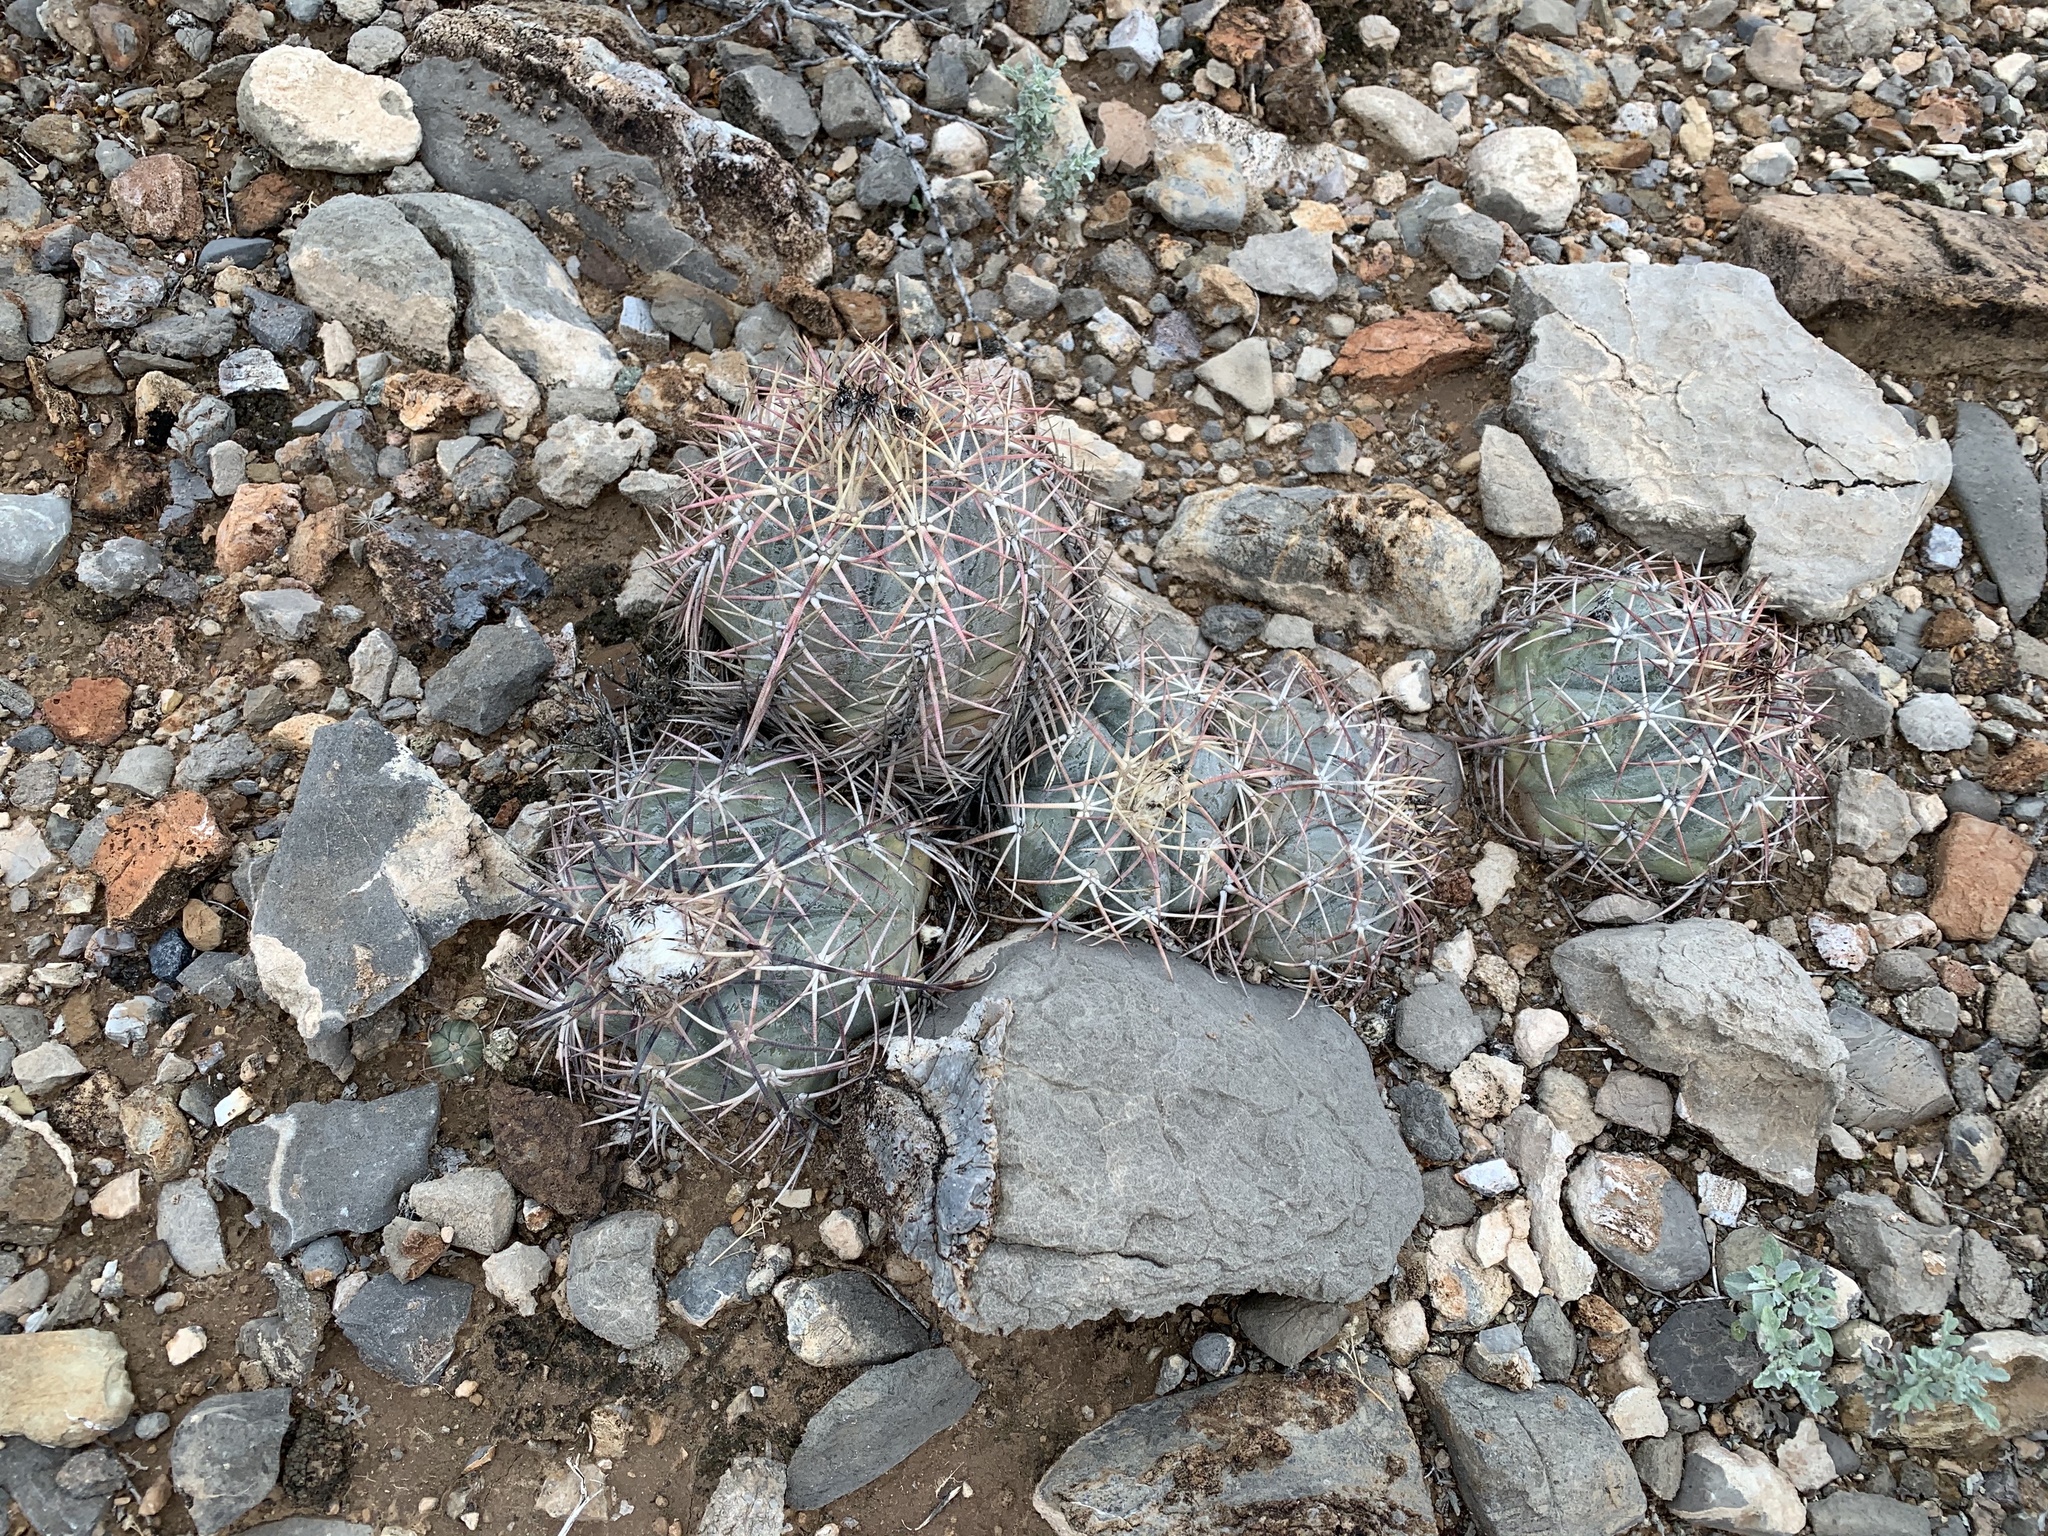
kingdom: Plantae
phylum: Tracheophyta
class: Magnoliopsida
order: Caryophyllales
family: Cactaceae
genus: Echinocactus
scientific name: Echinocactus horizonthalonius
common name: Devilshead
